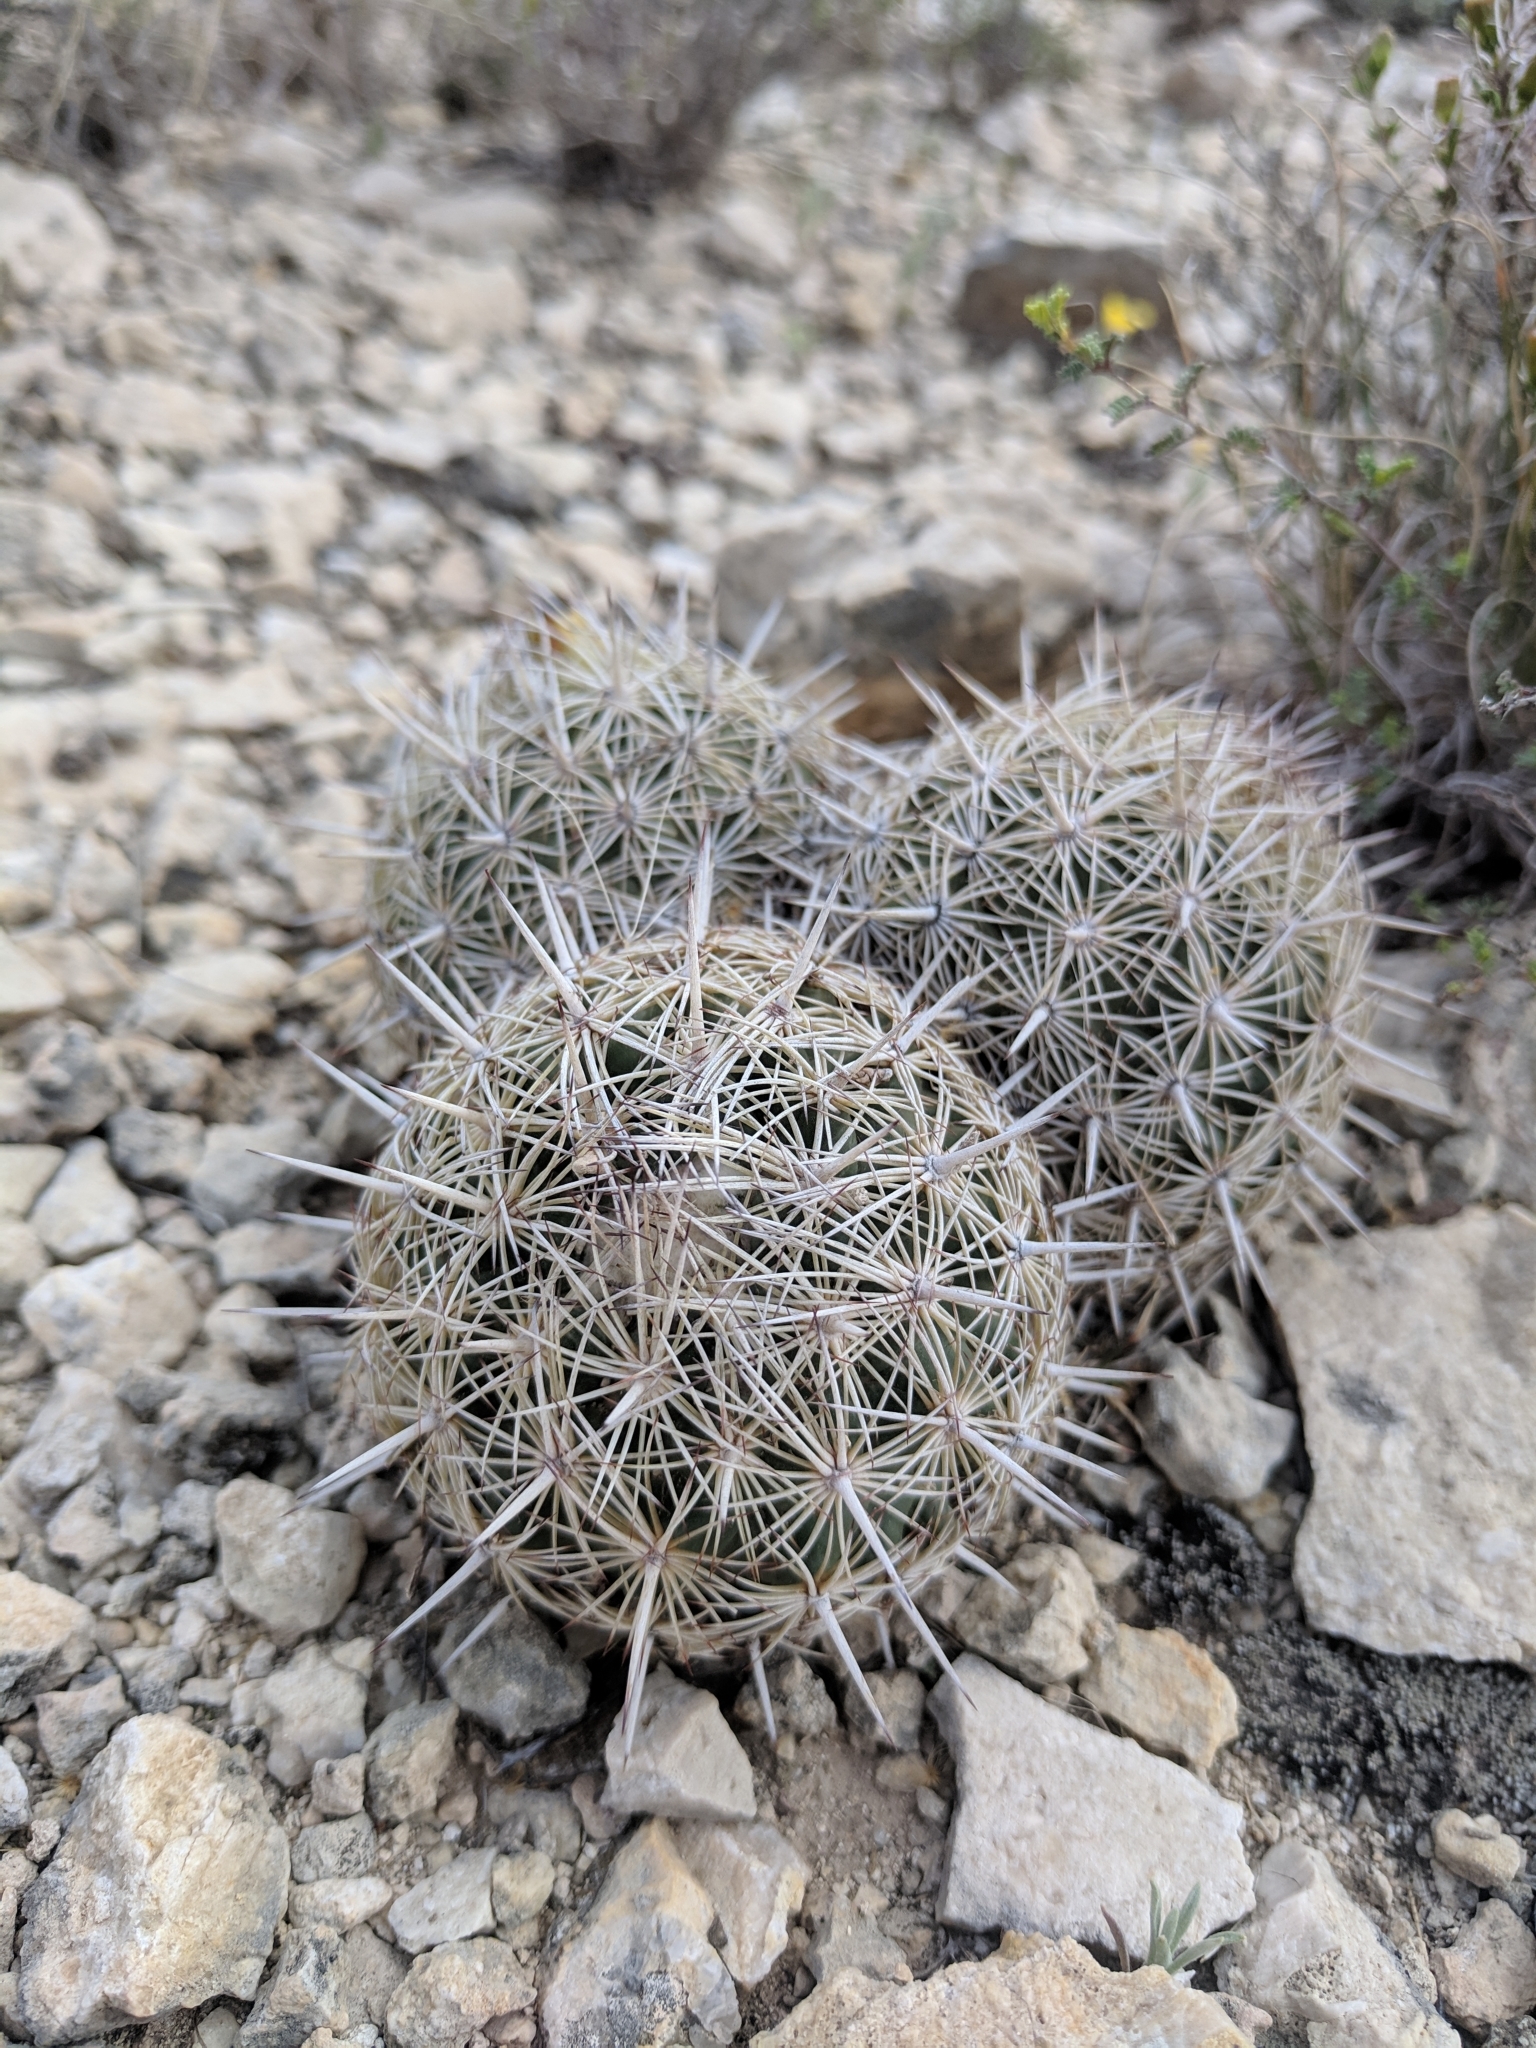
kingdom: Plantae
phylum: Tracheophyta
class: Magnoliopsida
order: Caryophyllales
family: Cactaceae
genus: Coryphantha
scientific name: Coryphantha echinus
